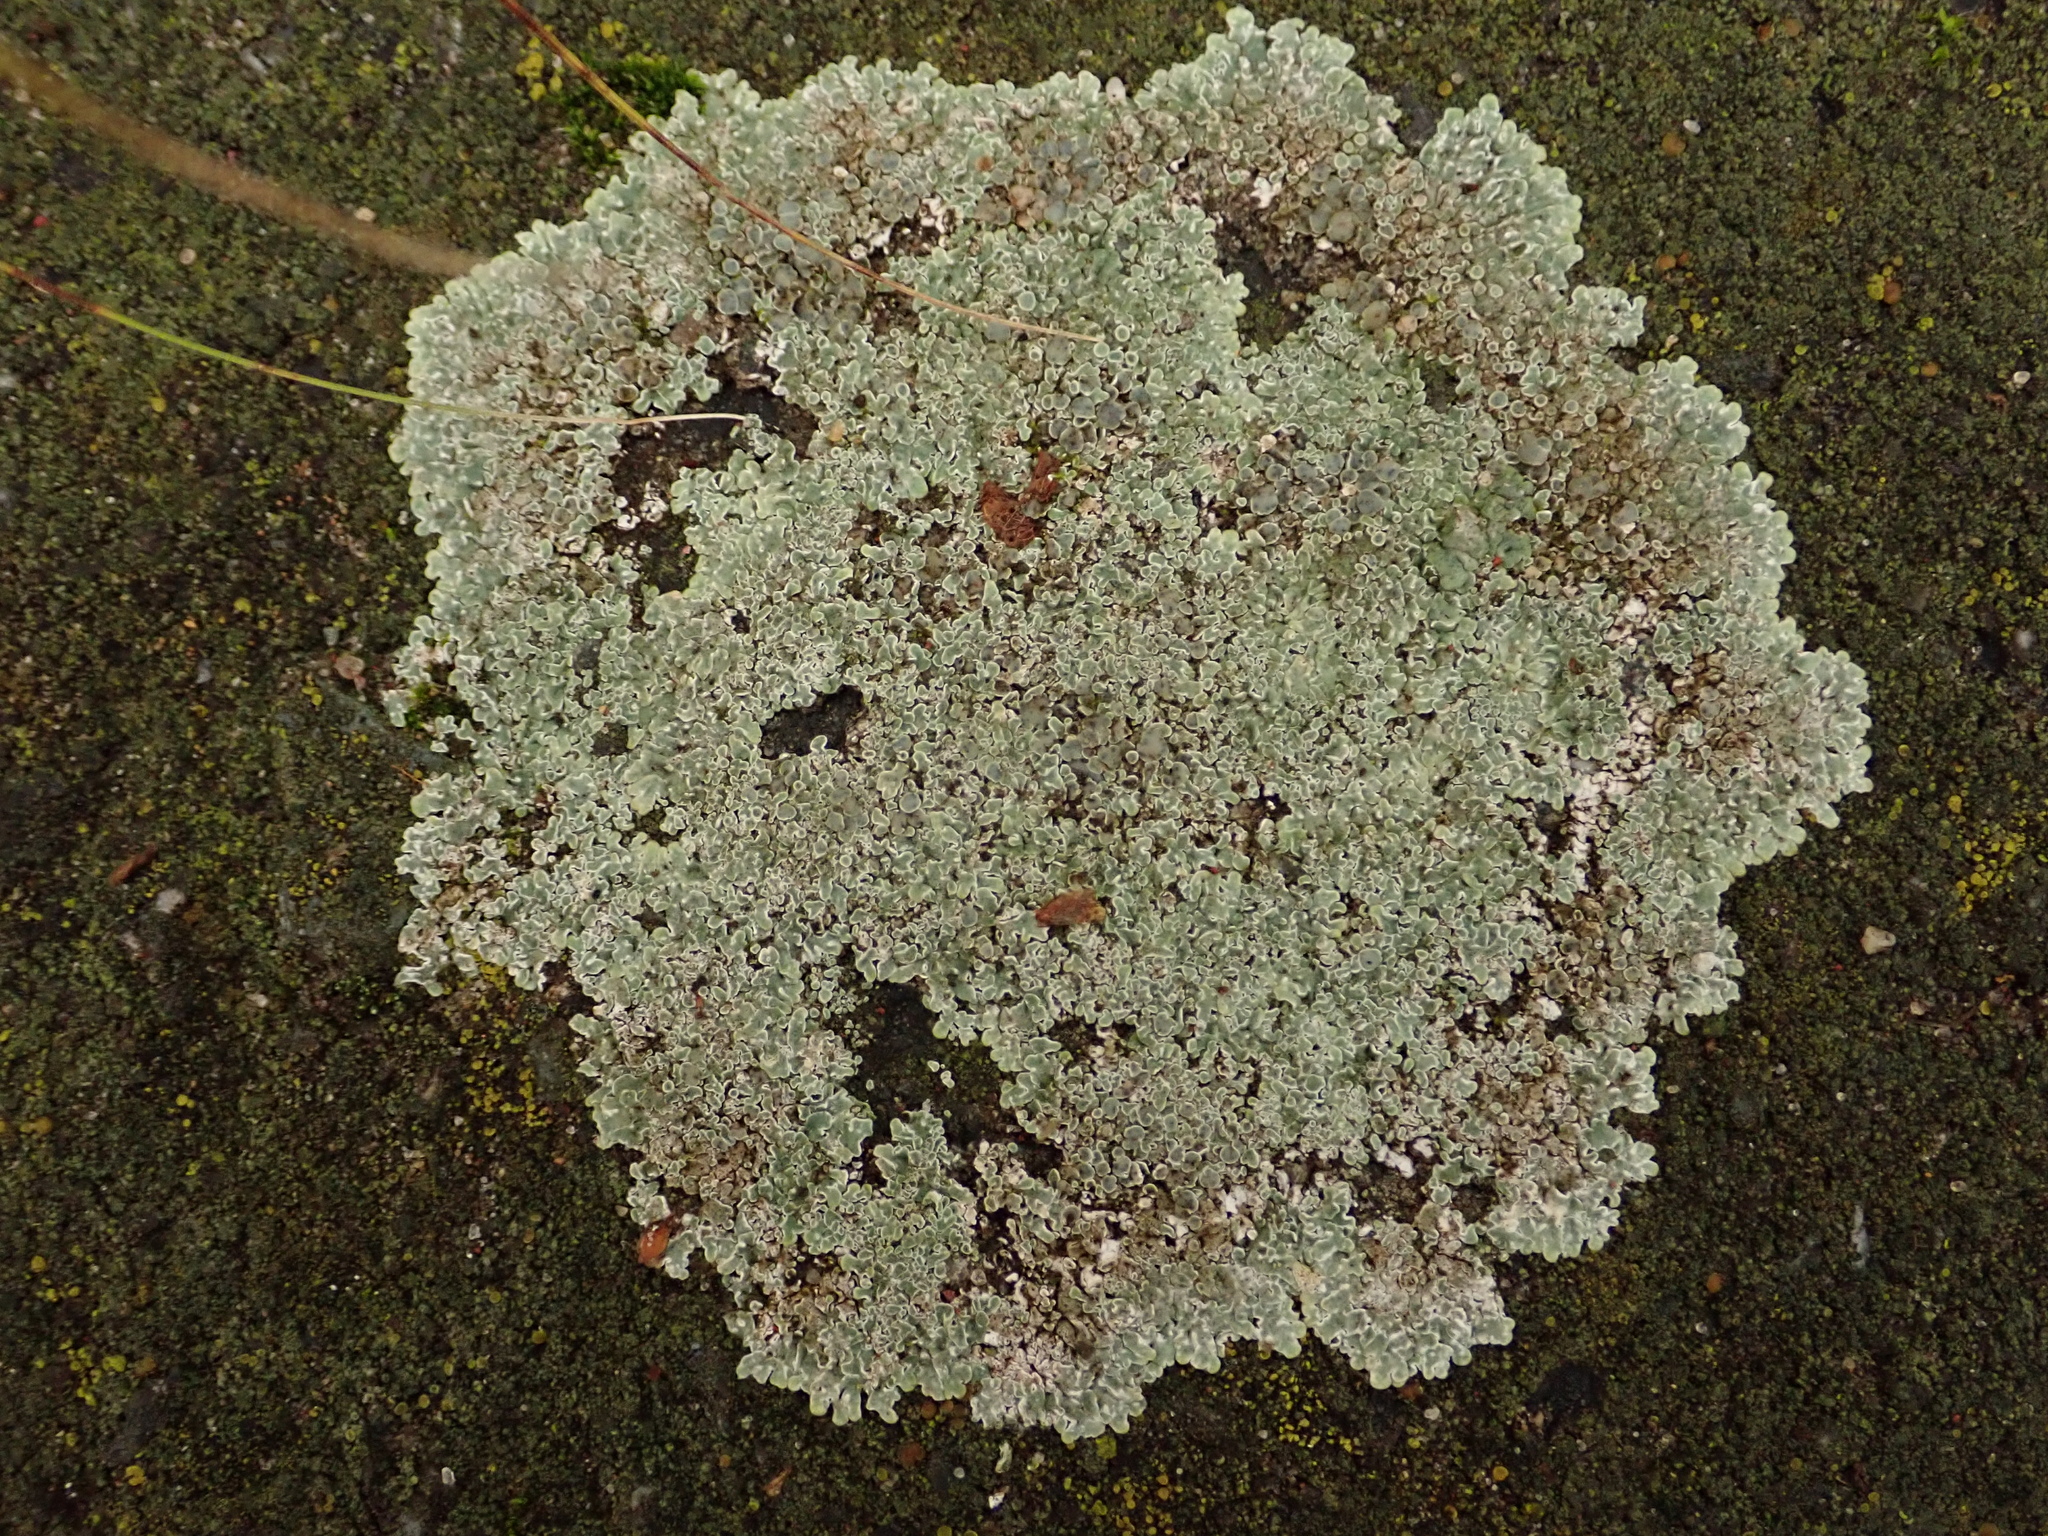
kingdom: Fungi
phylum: Ascomycota
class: Lecanoromycetes
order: Lecanorales
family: Lecanoraceae
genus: Protoparmeliopsis
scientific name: Protoparmeliopsis muralis
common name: Stonewall rim lichen
